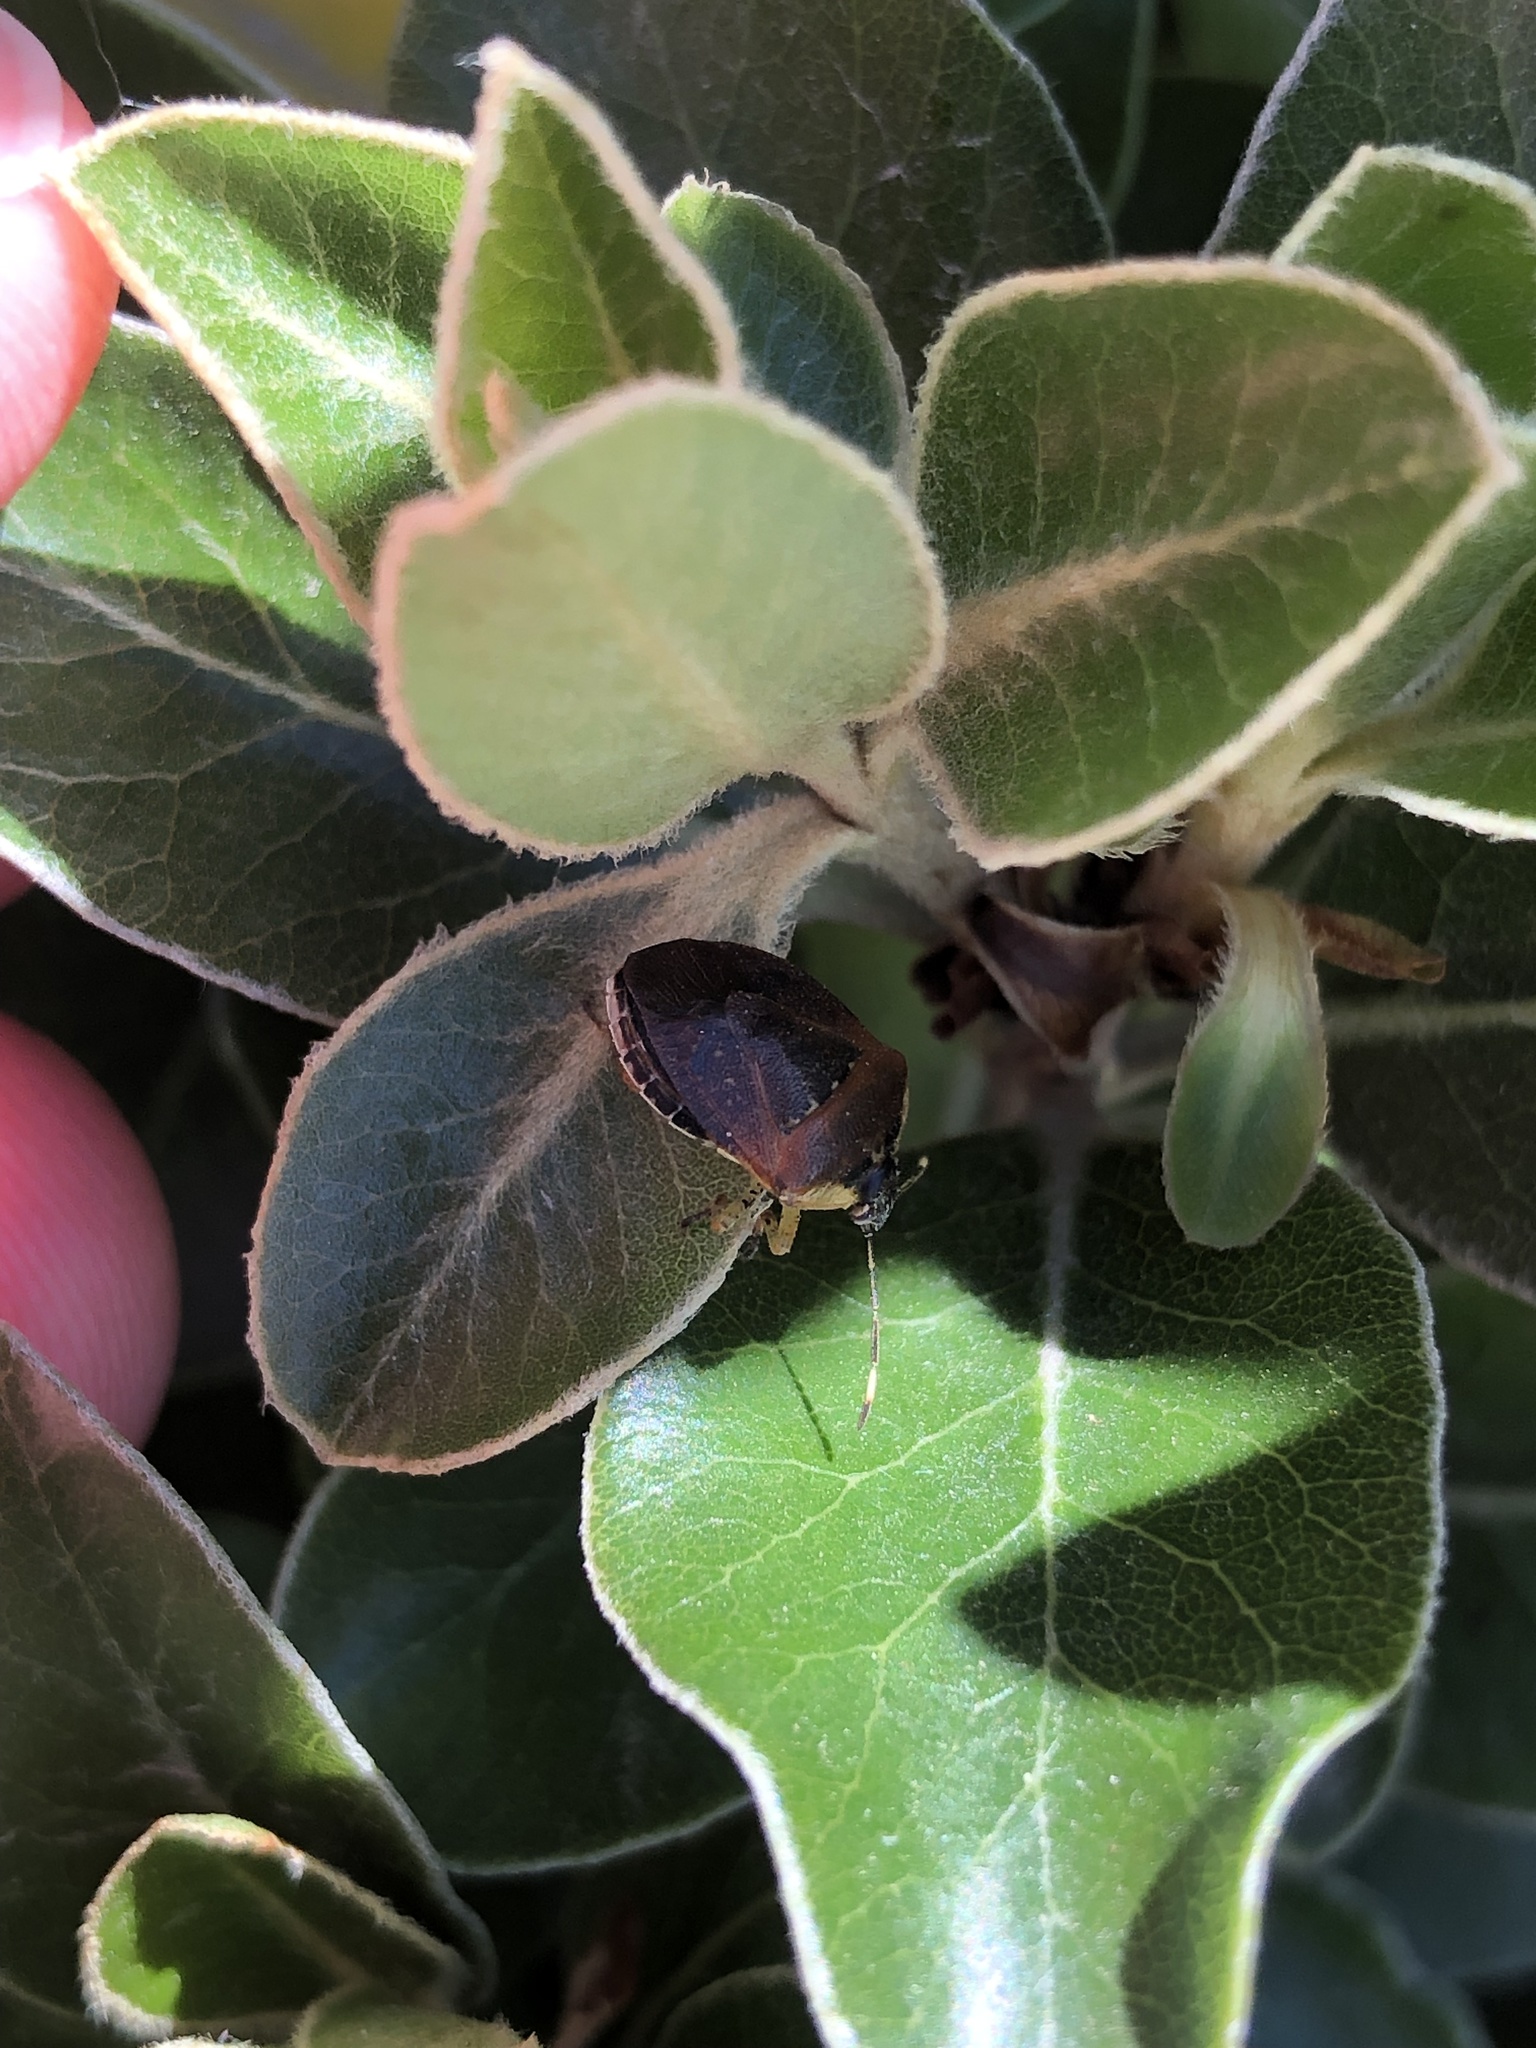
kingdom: Animalia
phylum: Arthropoda
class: Insecta
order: Hemiptera
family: Pentatomidae
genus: Monteithiella
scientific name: Monteithiella
